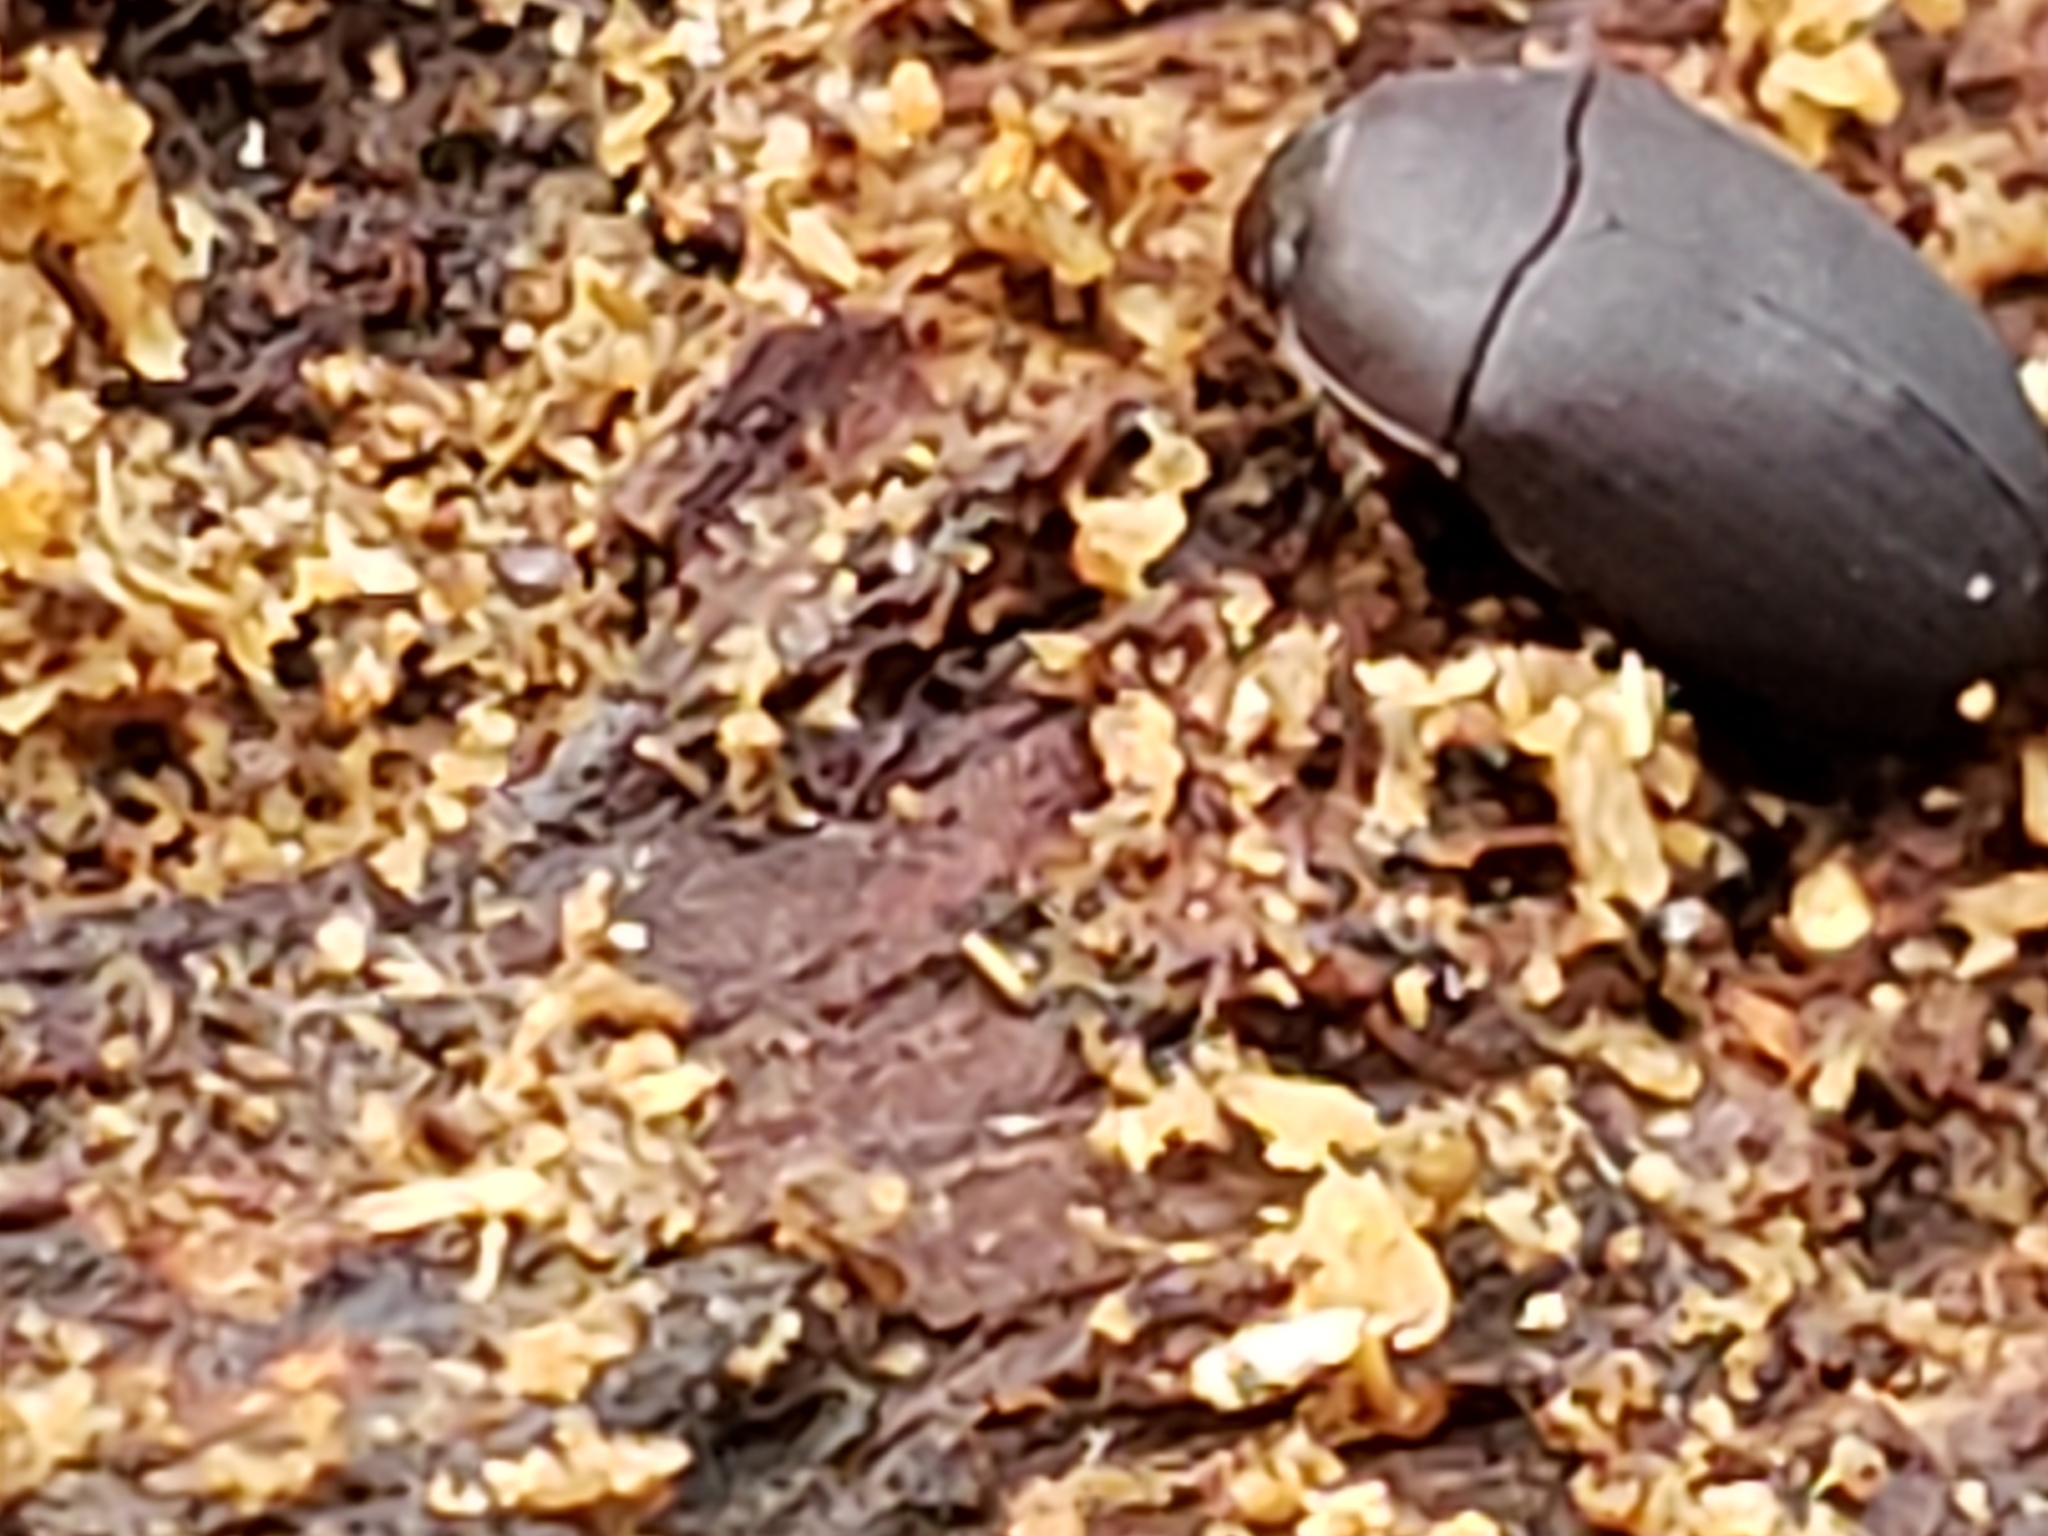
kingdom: Animalia
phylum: Arthropoda
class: Insecta
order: Coleoptera
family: Tenebrionidae
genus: Platydema
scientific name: Platydema ruficornis
